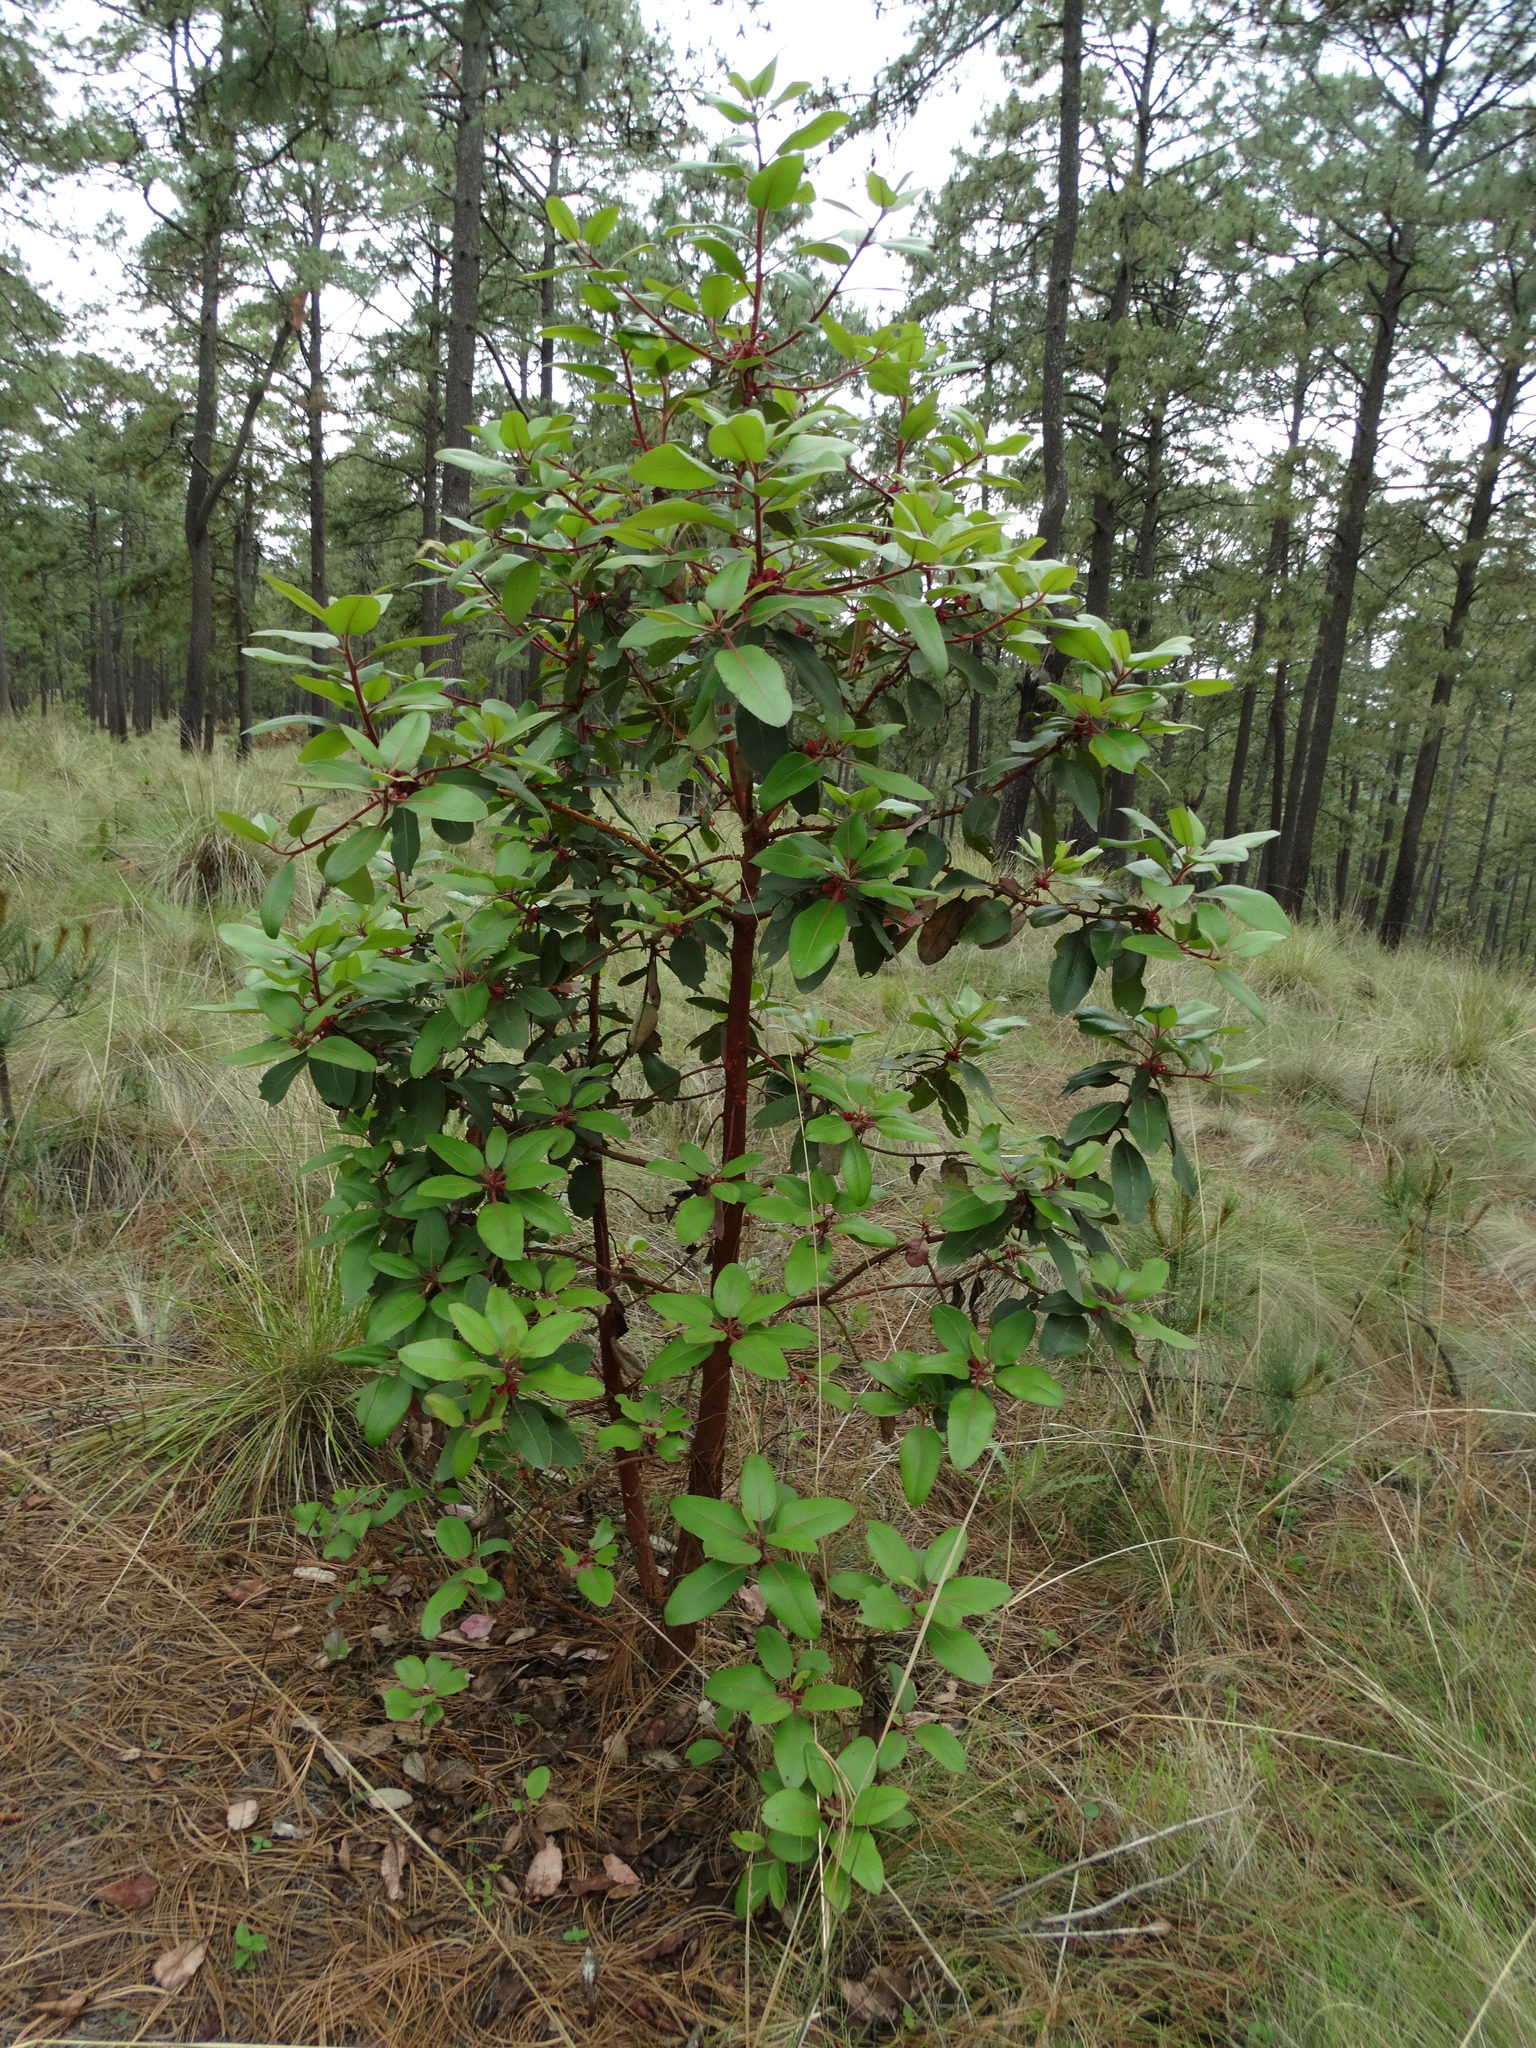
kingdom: Plantae
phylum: Tracheophyta
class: Magnoliopsida
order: Ericales
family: Ericaceae
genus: Arbutus
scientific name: Arbutus xalapensis
